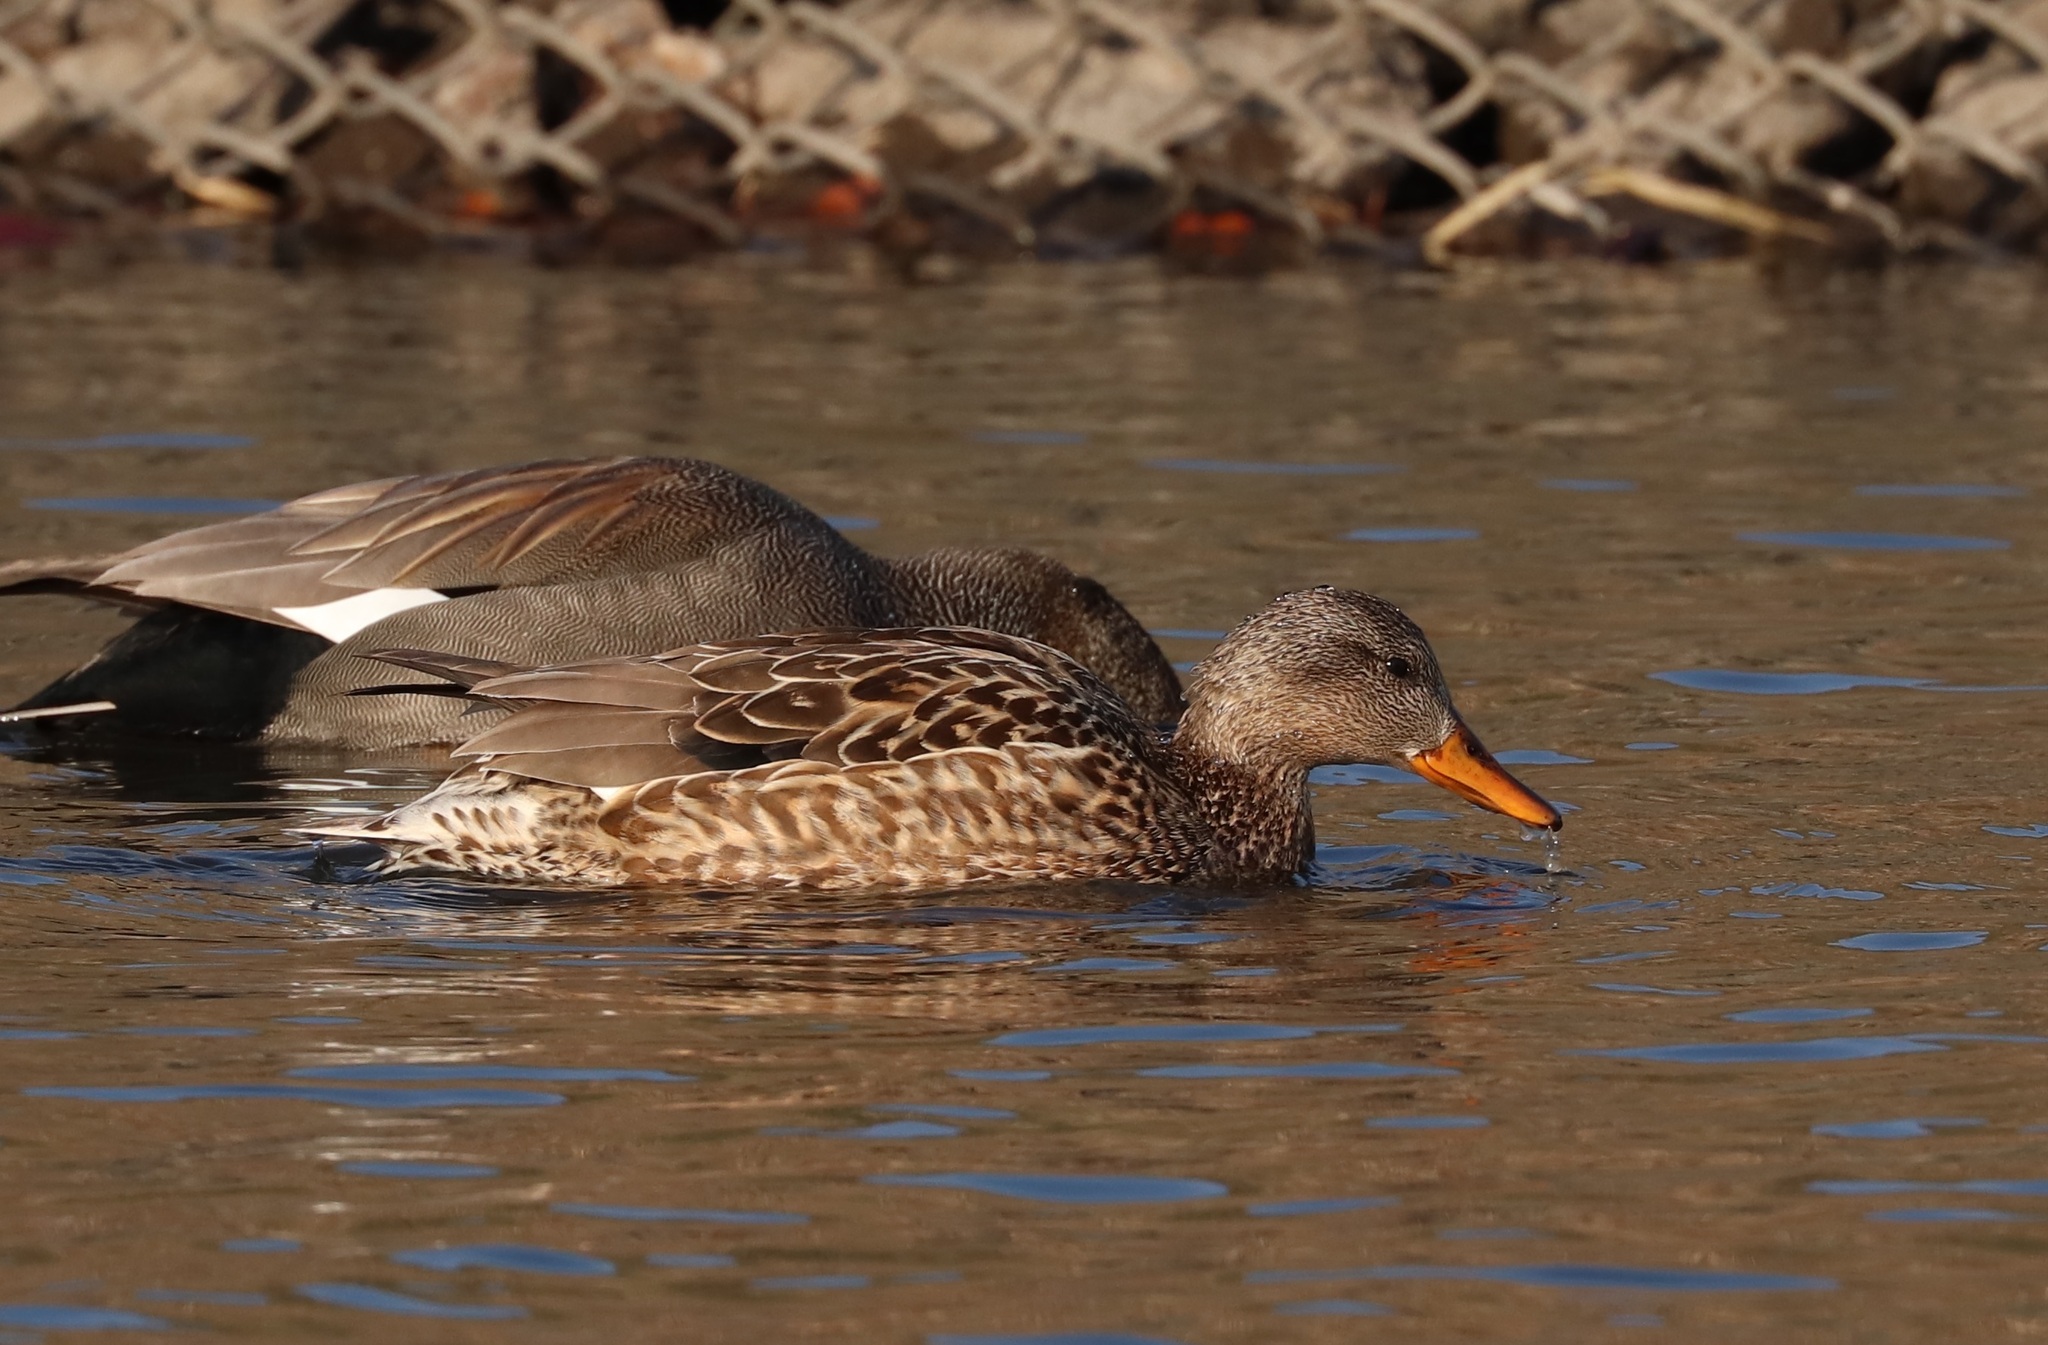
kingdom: Animalia
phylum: Chordata
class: Aves
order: Anseriformes
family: Anatidae
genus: Mareca
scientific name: Mareca strepera
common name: Gadwall
